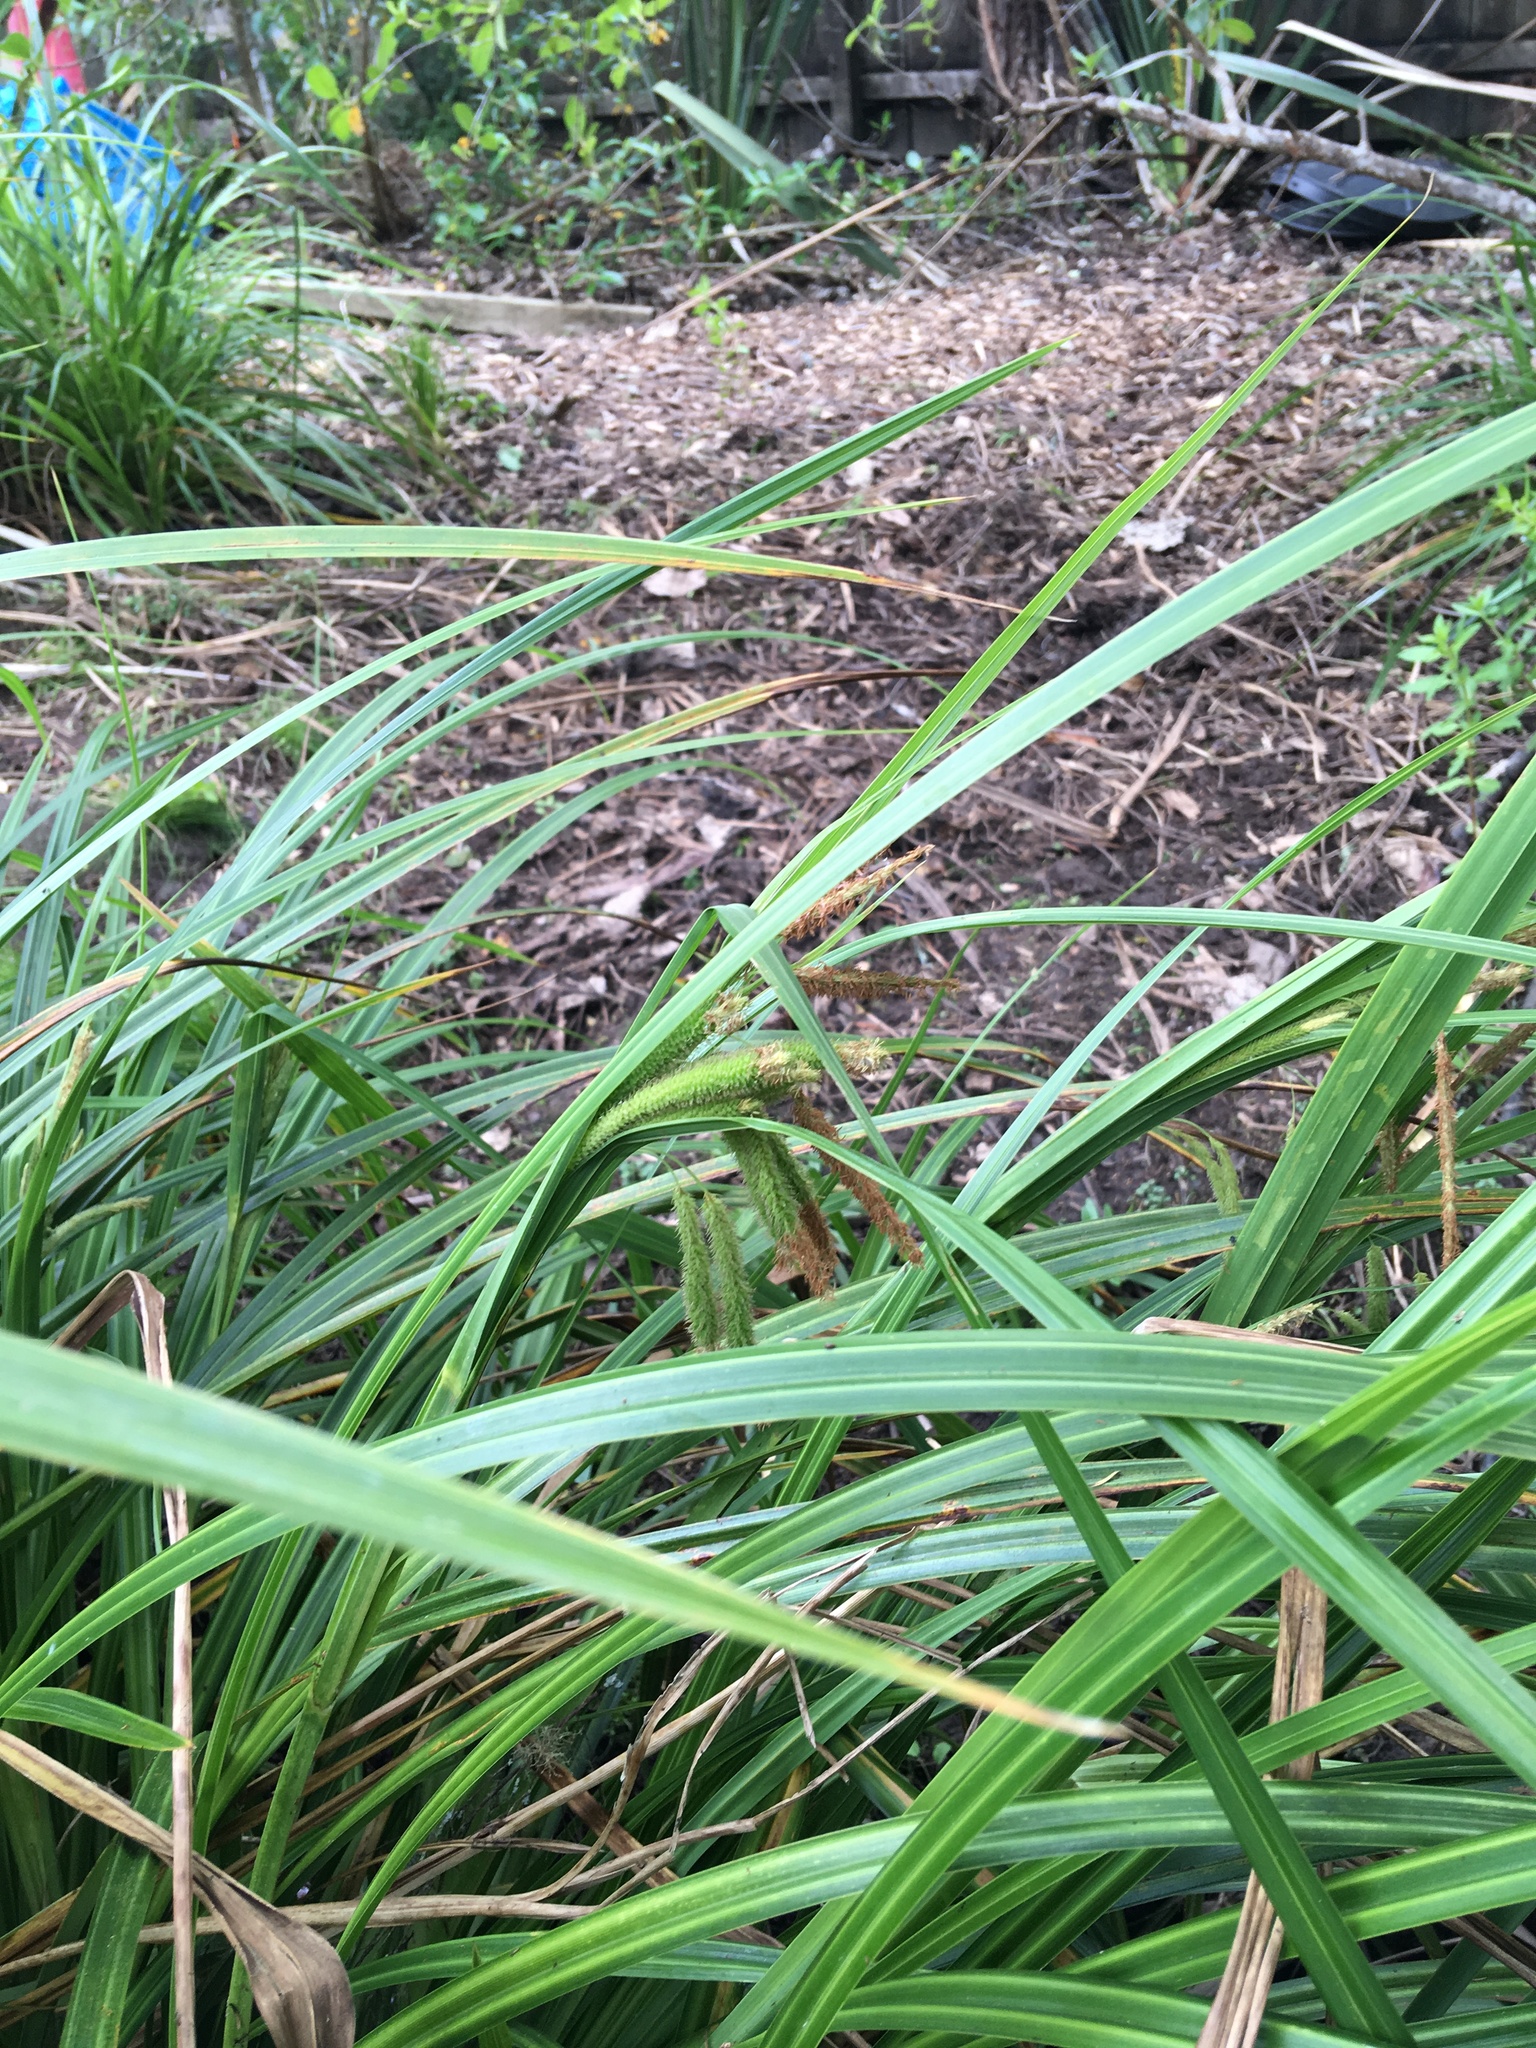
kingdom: Plantae
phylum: Tracheophyta
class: Liliopsida
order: Poales
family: Cyperaceae
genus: Carex
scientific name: Carex geminata
